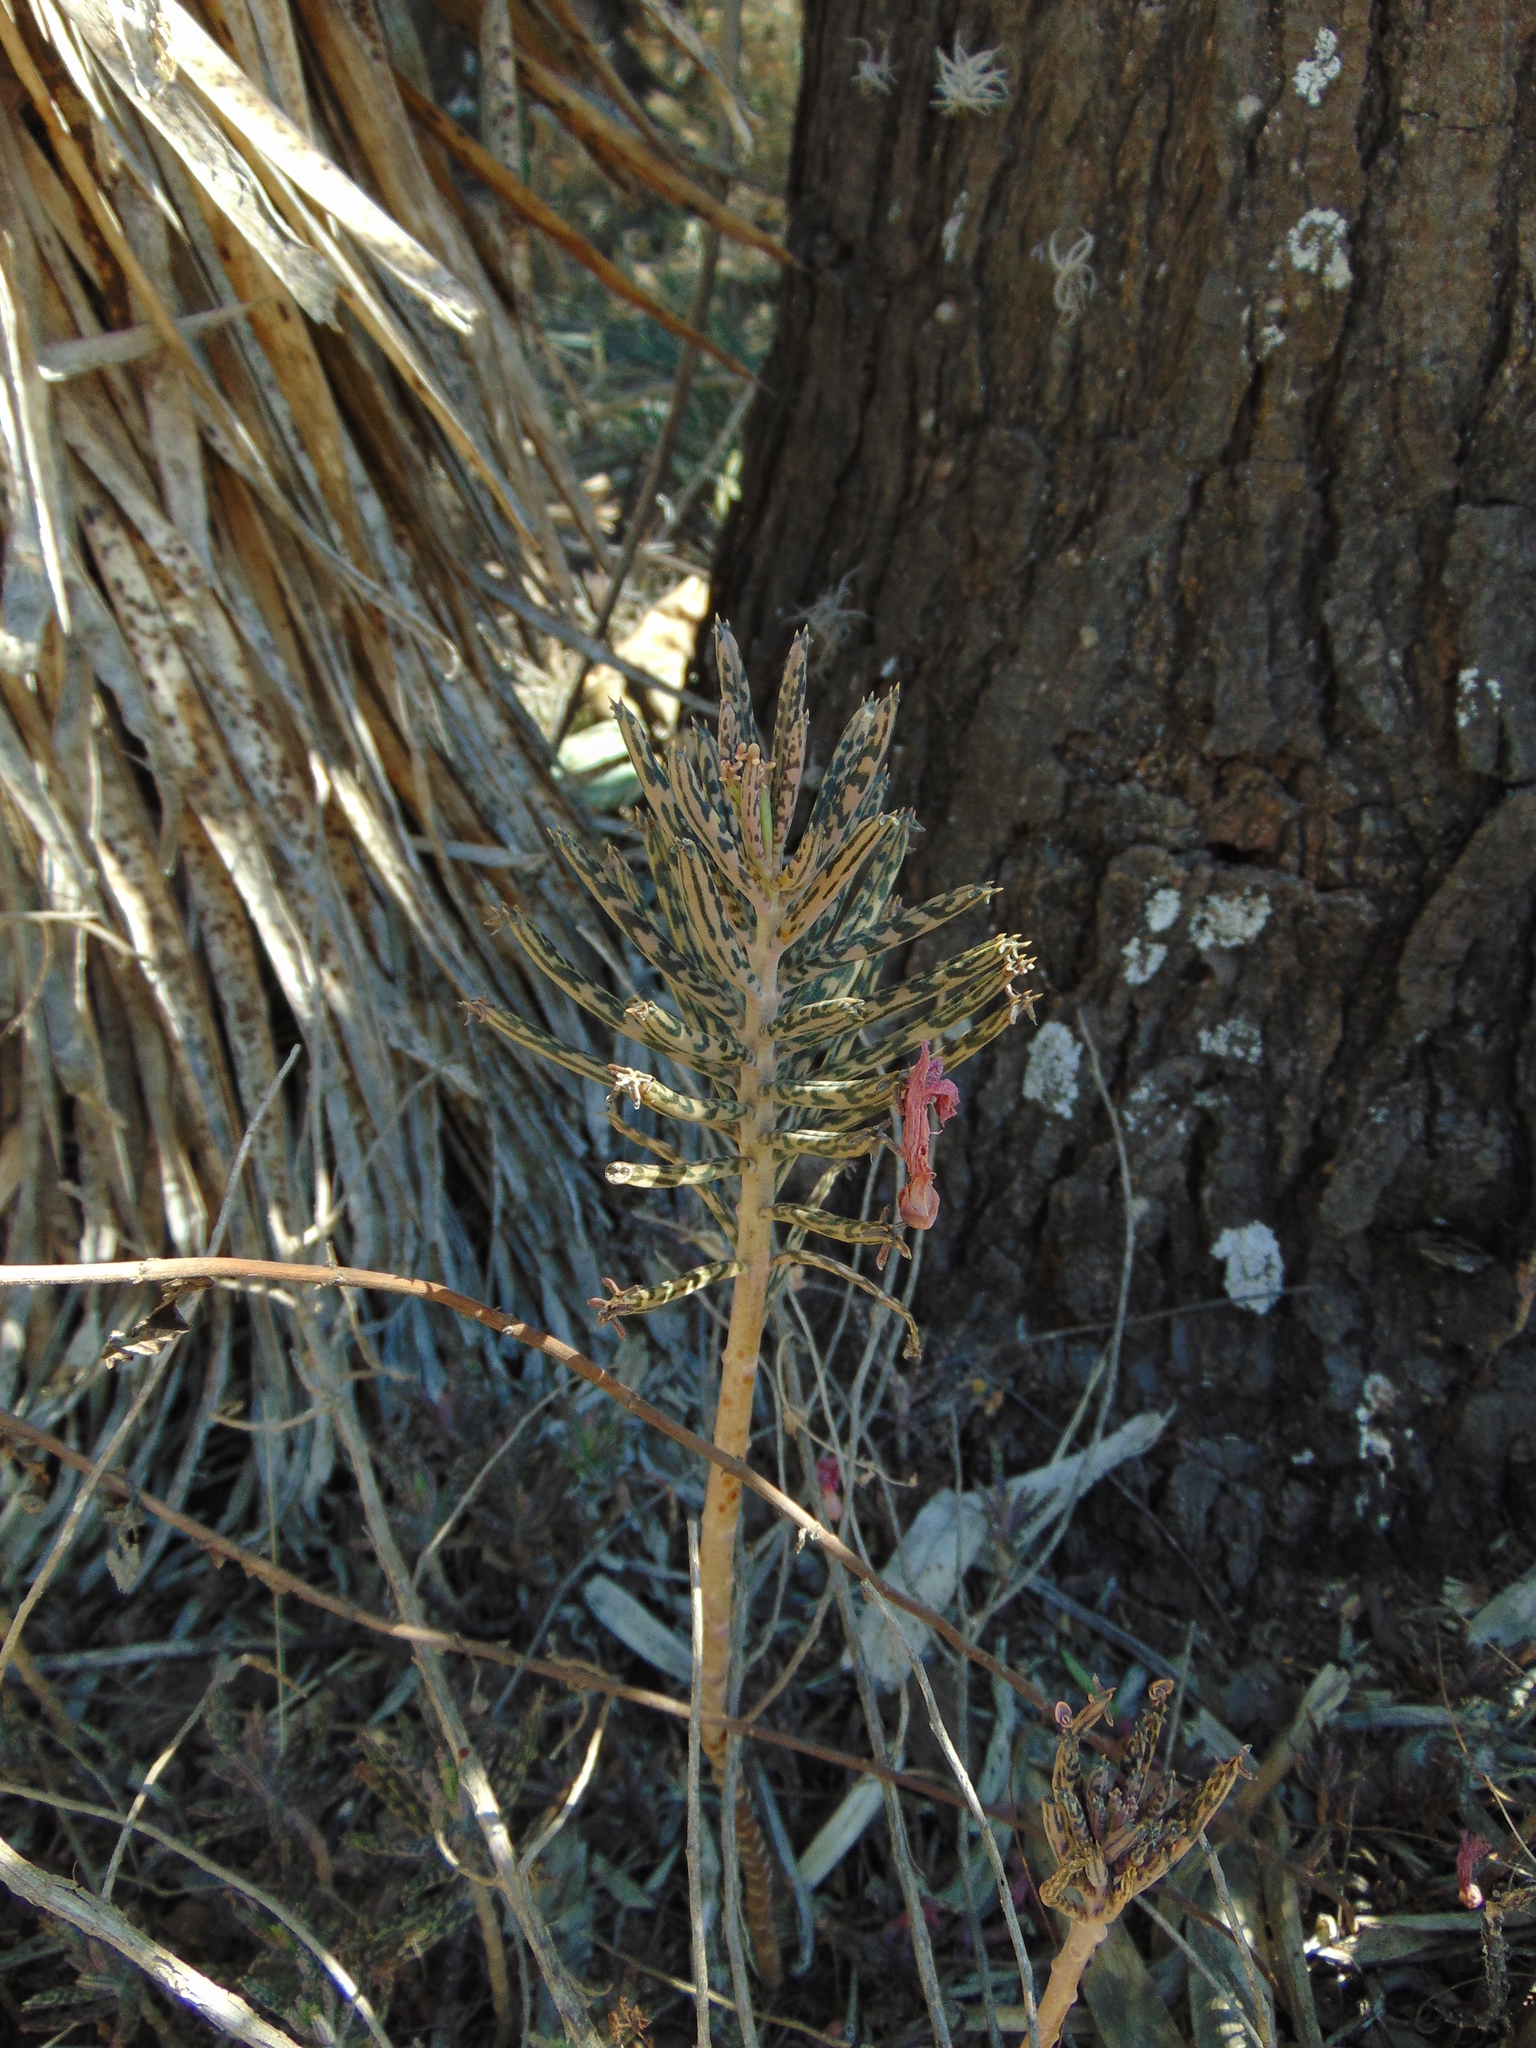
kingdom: Plantae
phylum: Tracheophyta
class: Magnoliopsida
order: Saxifragales
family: Crassulaceae
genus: Kalanchoe
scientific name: Kalanchoe delagoensis
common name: Chandelier plant
